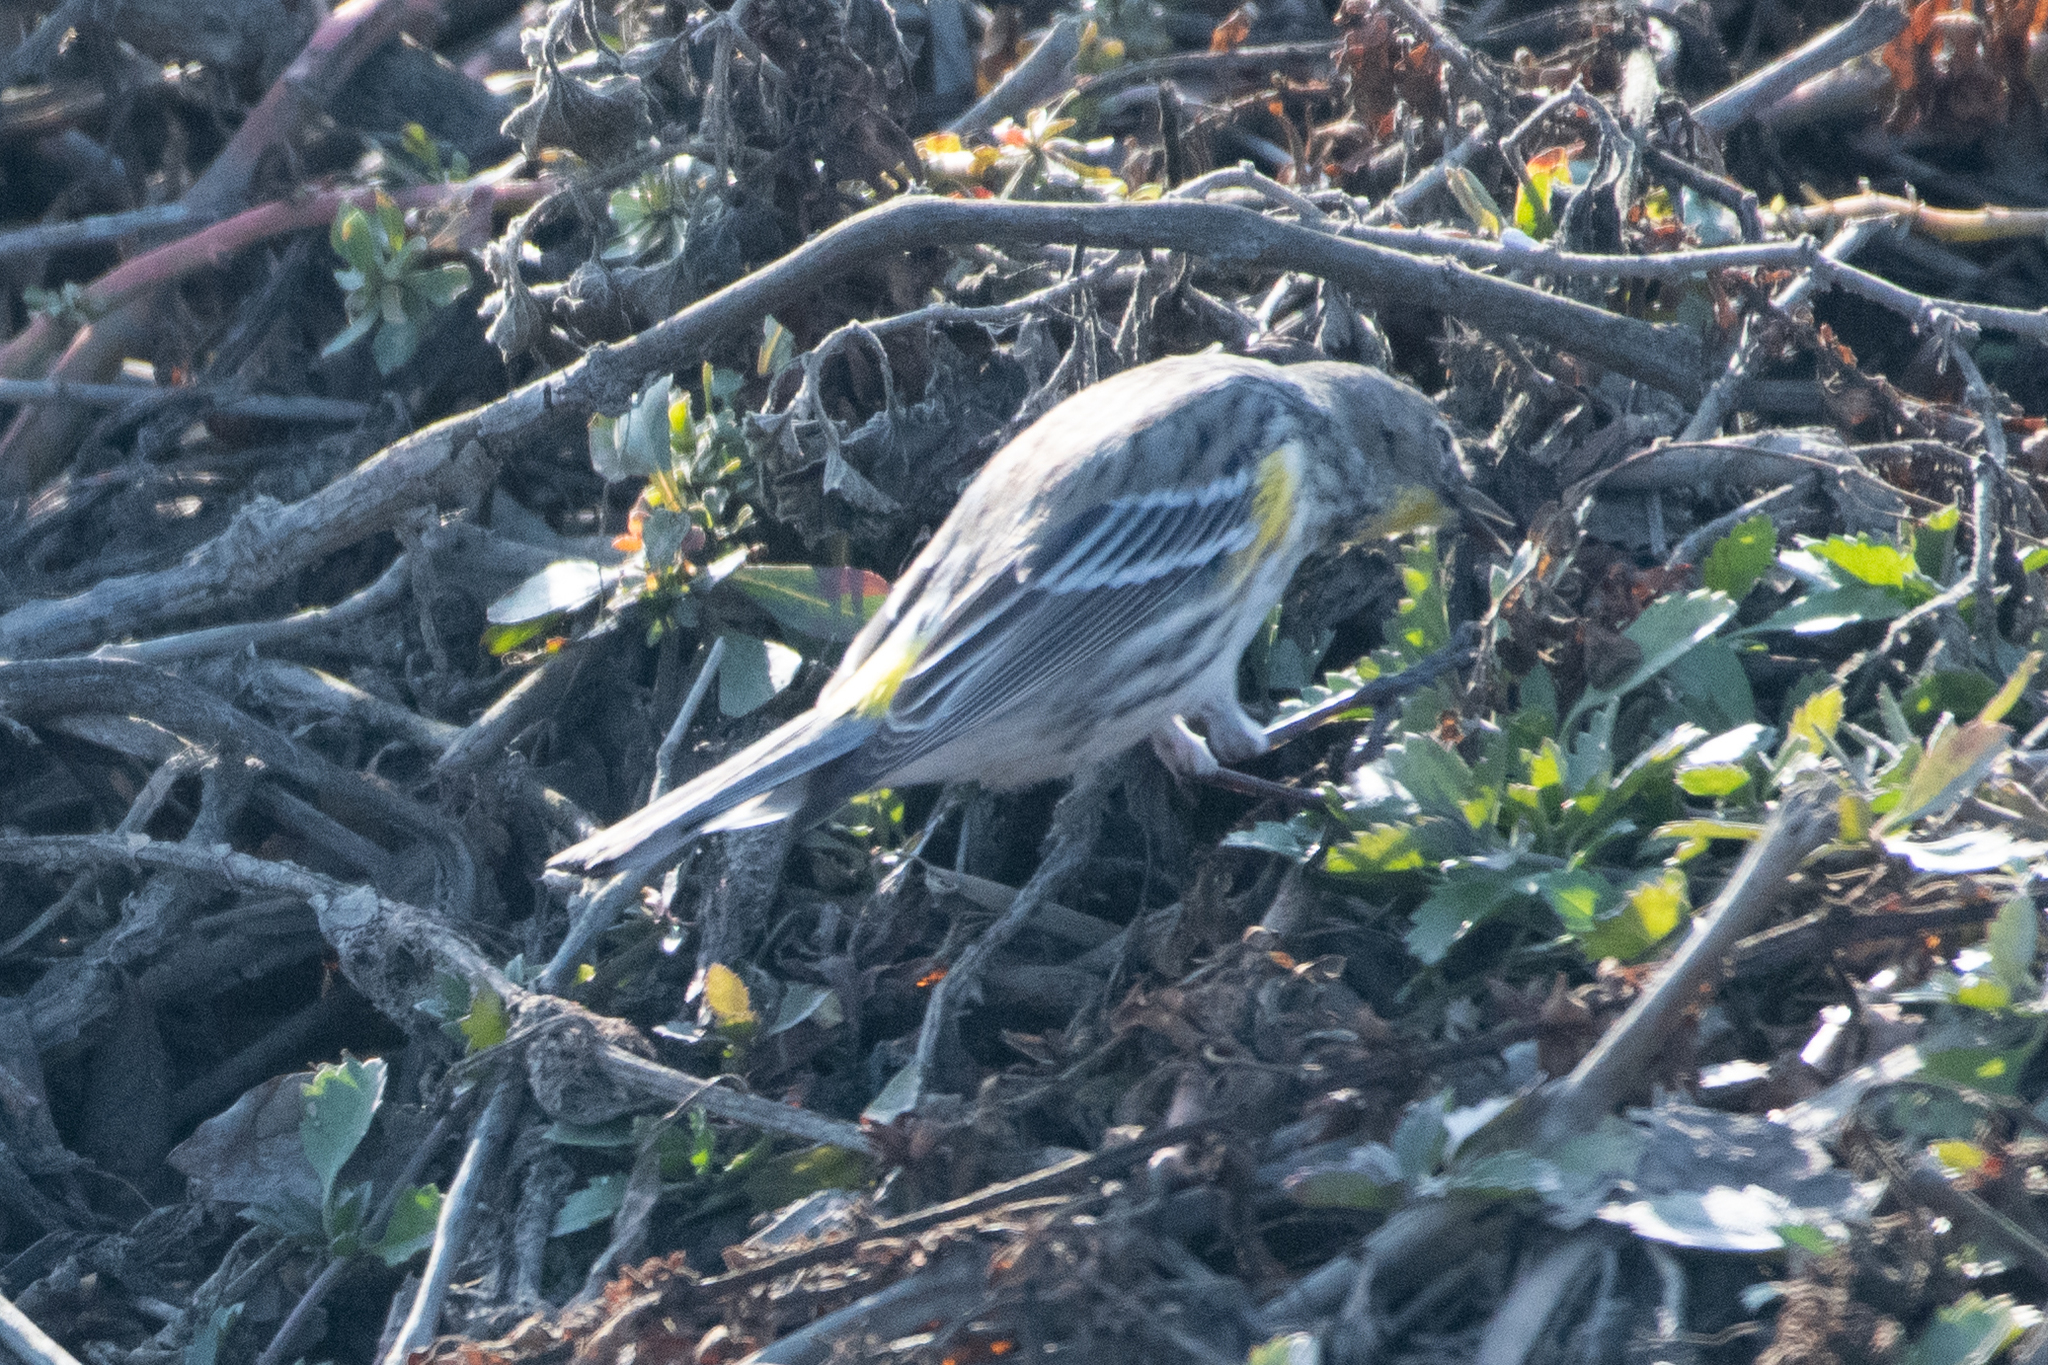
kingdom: Animalia
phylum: Chordata
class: Aves
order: Passeriformes
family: Parulidae
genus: Setophaga
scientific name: Setophaga coronata
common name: Myrtle warbler
